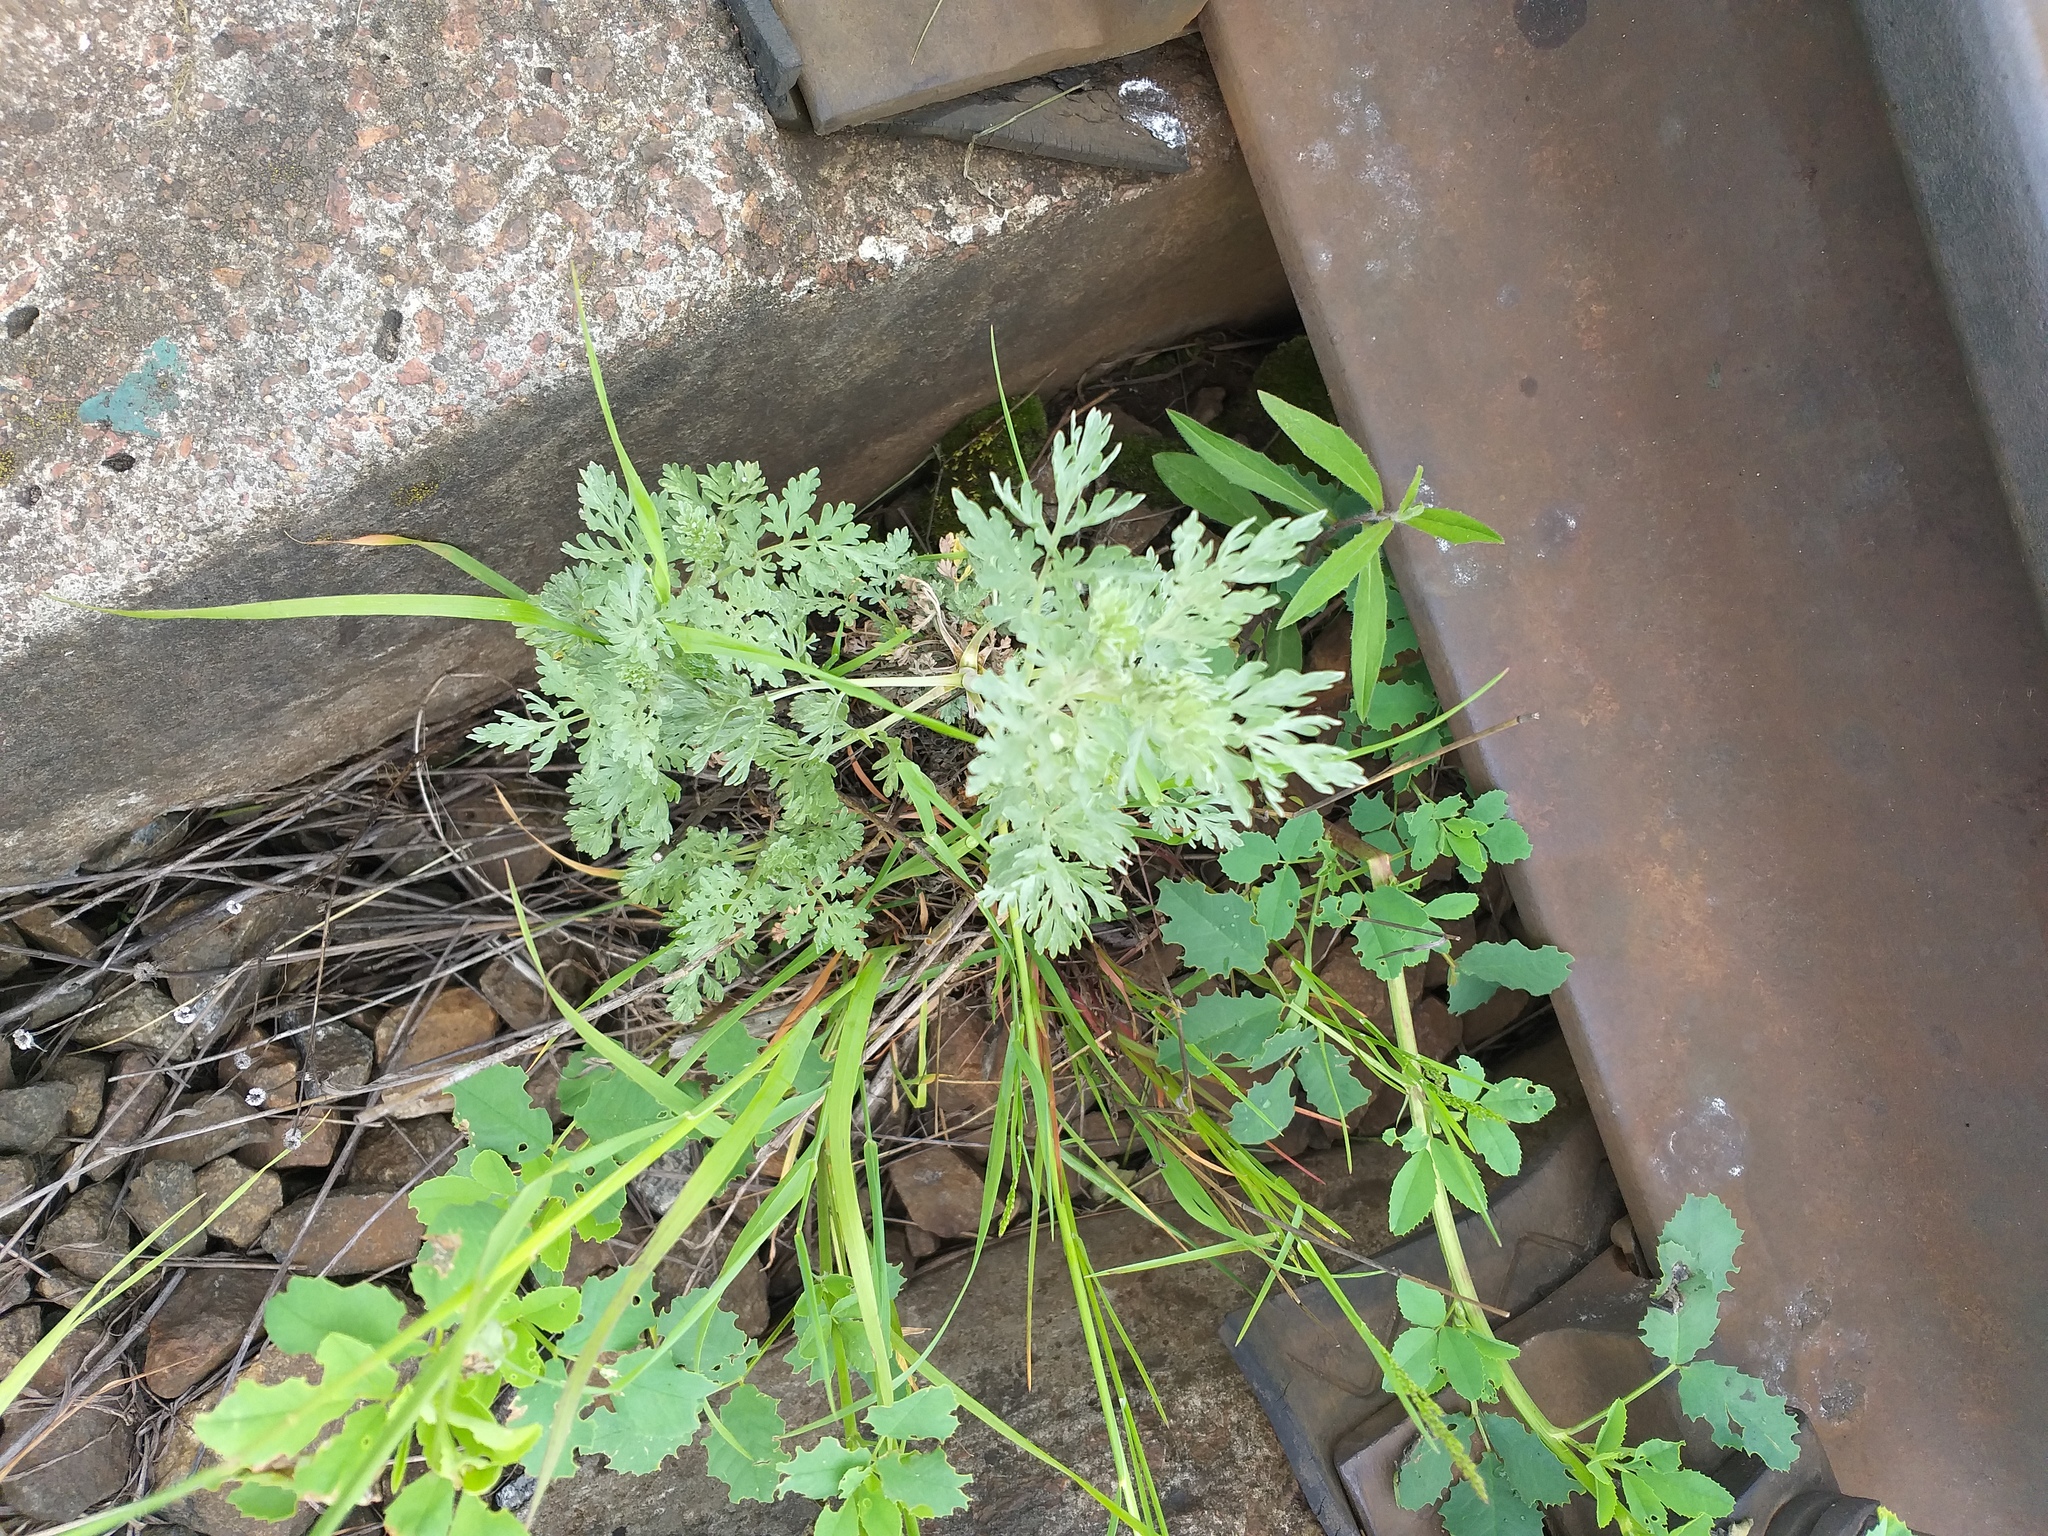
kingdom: Plantae
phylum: Tracheophyta
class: Magnoliopsida
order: Asterales
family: Asteraceae
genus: Artemisia
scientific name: Artemisia absinthium
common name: Wormwood
